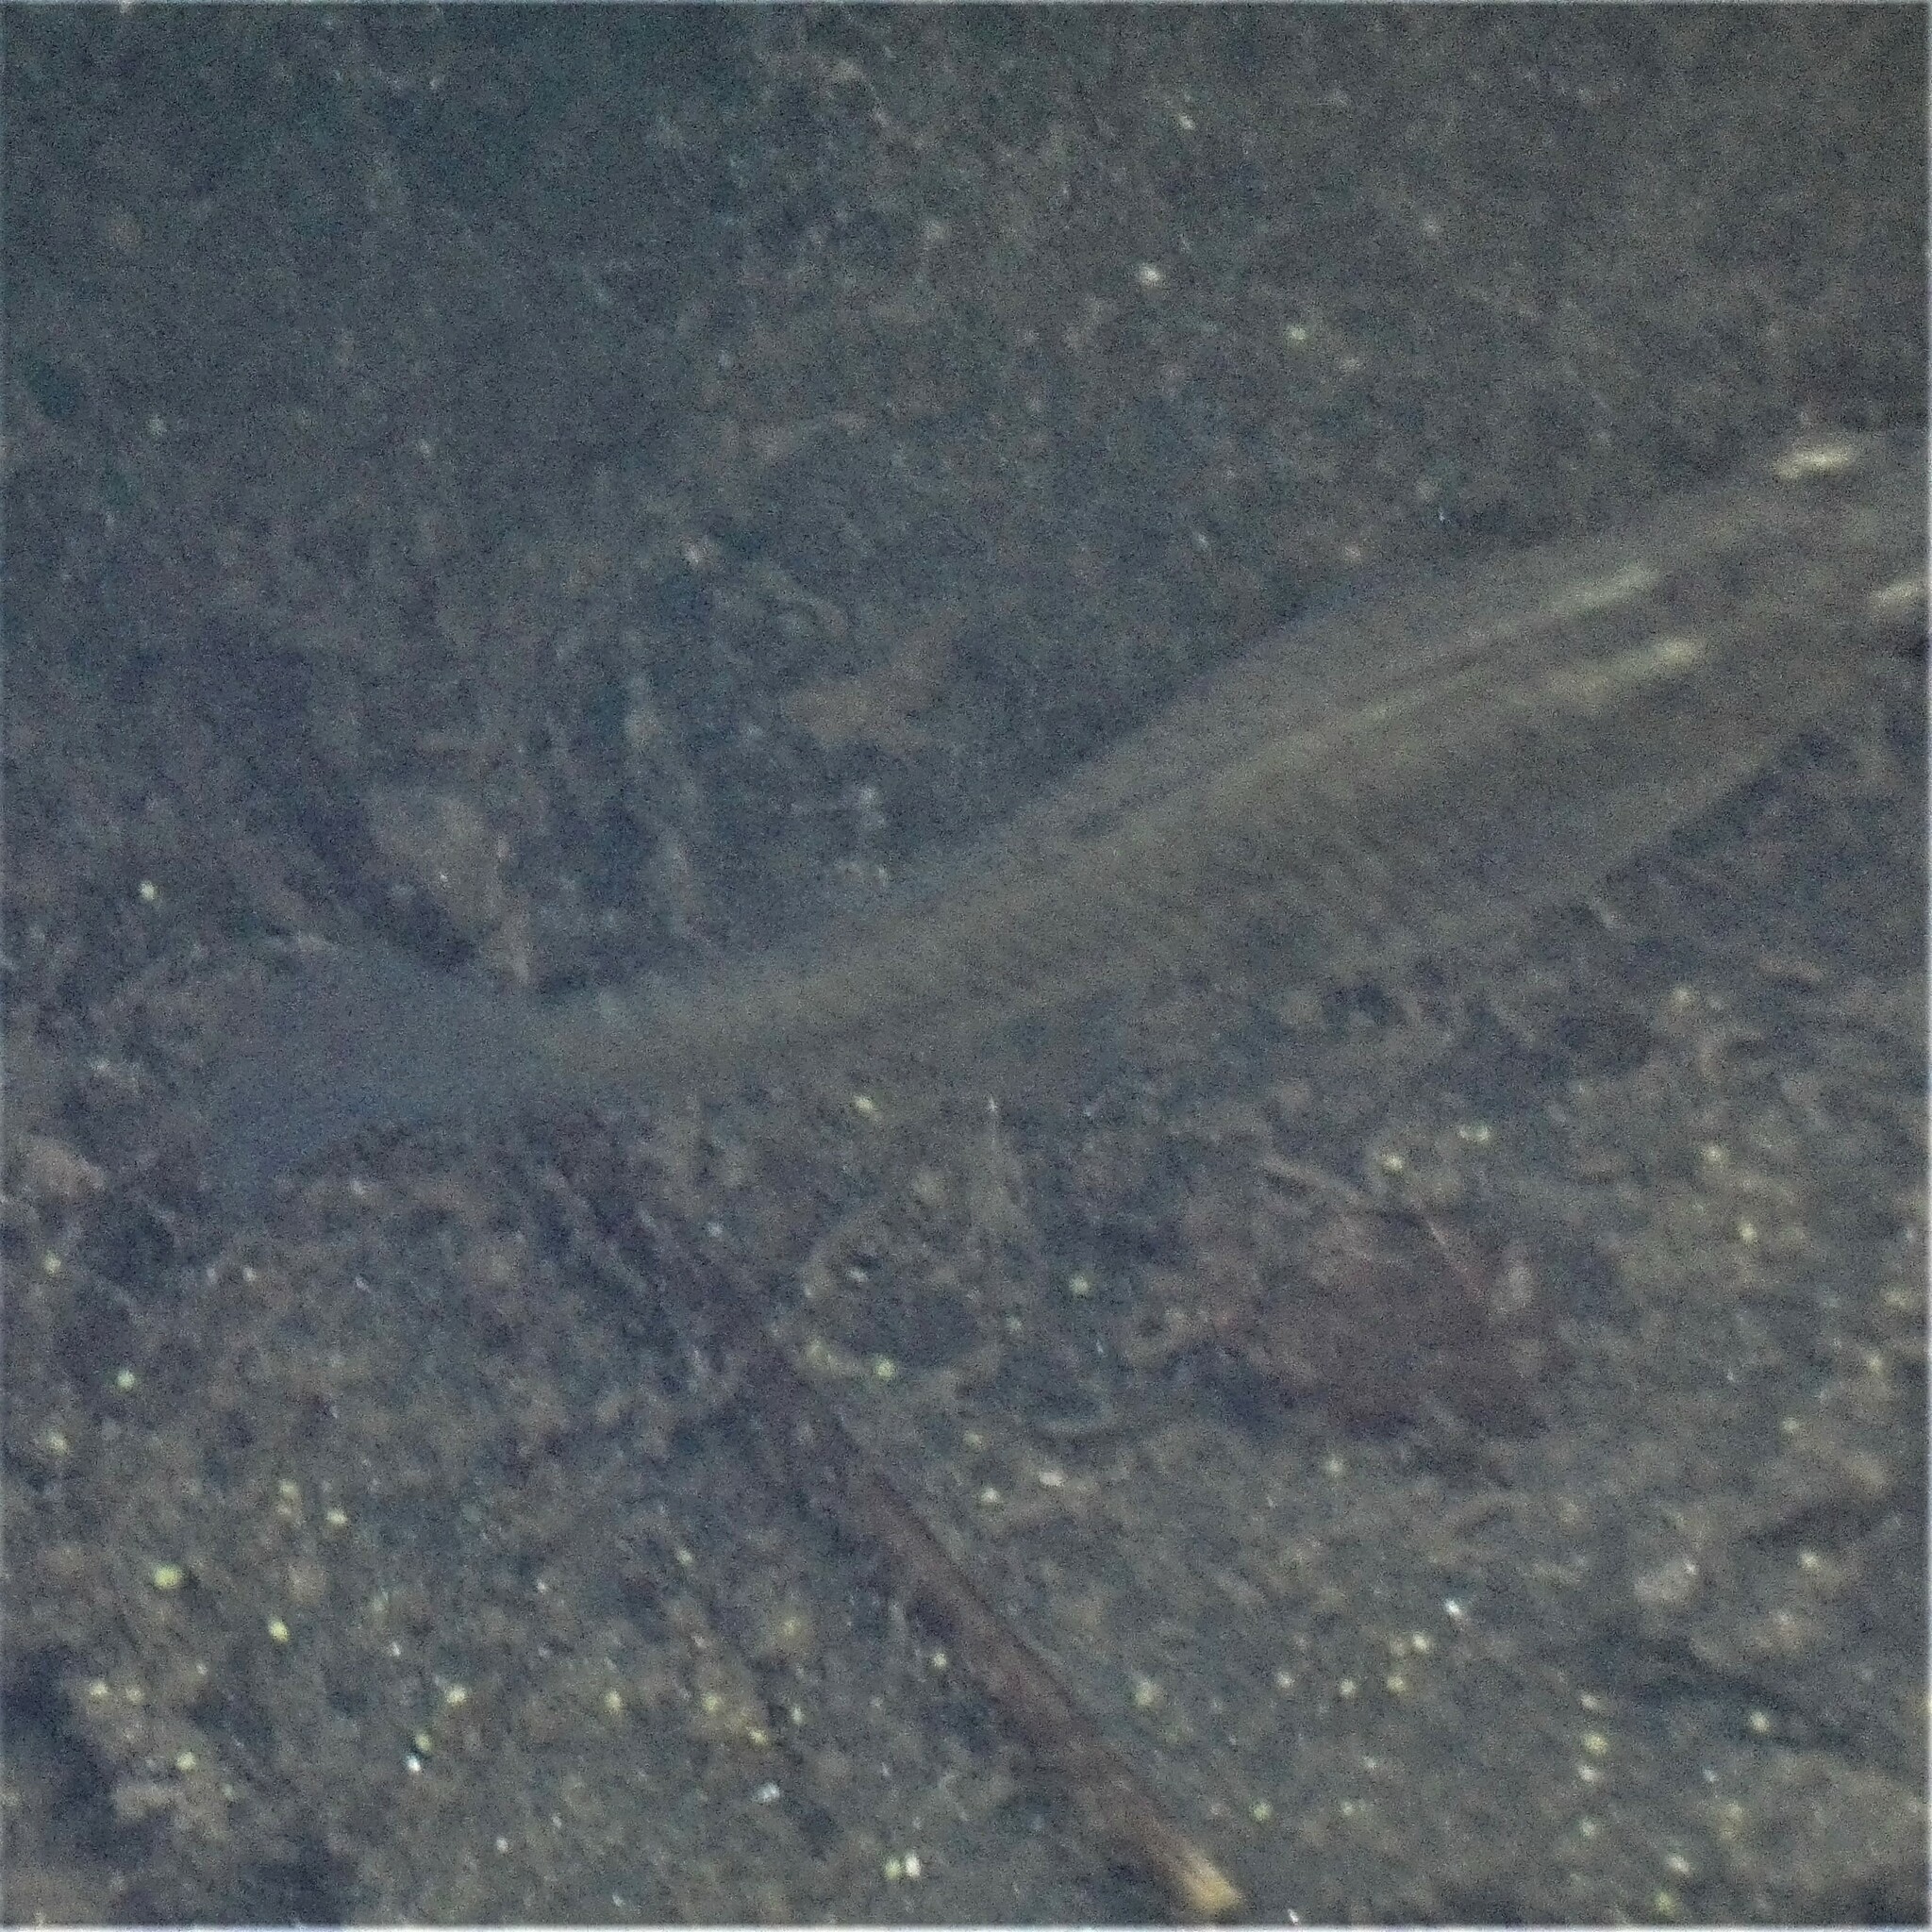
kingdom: Animalia
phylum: Chordata
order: Cyprinodontiformes
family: Poeciliidae
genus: Gambusia
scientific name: Gambusia holbrooki
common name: Eastern mosquitofish
